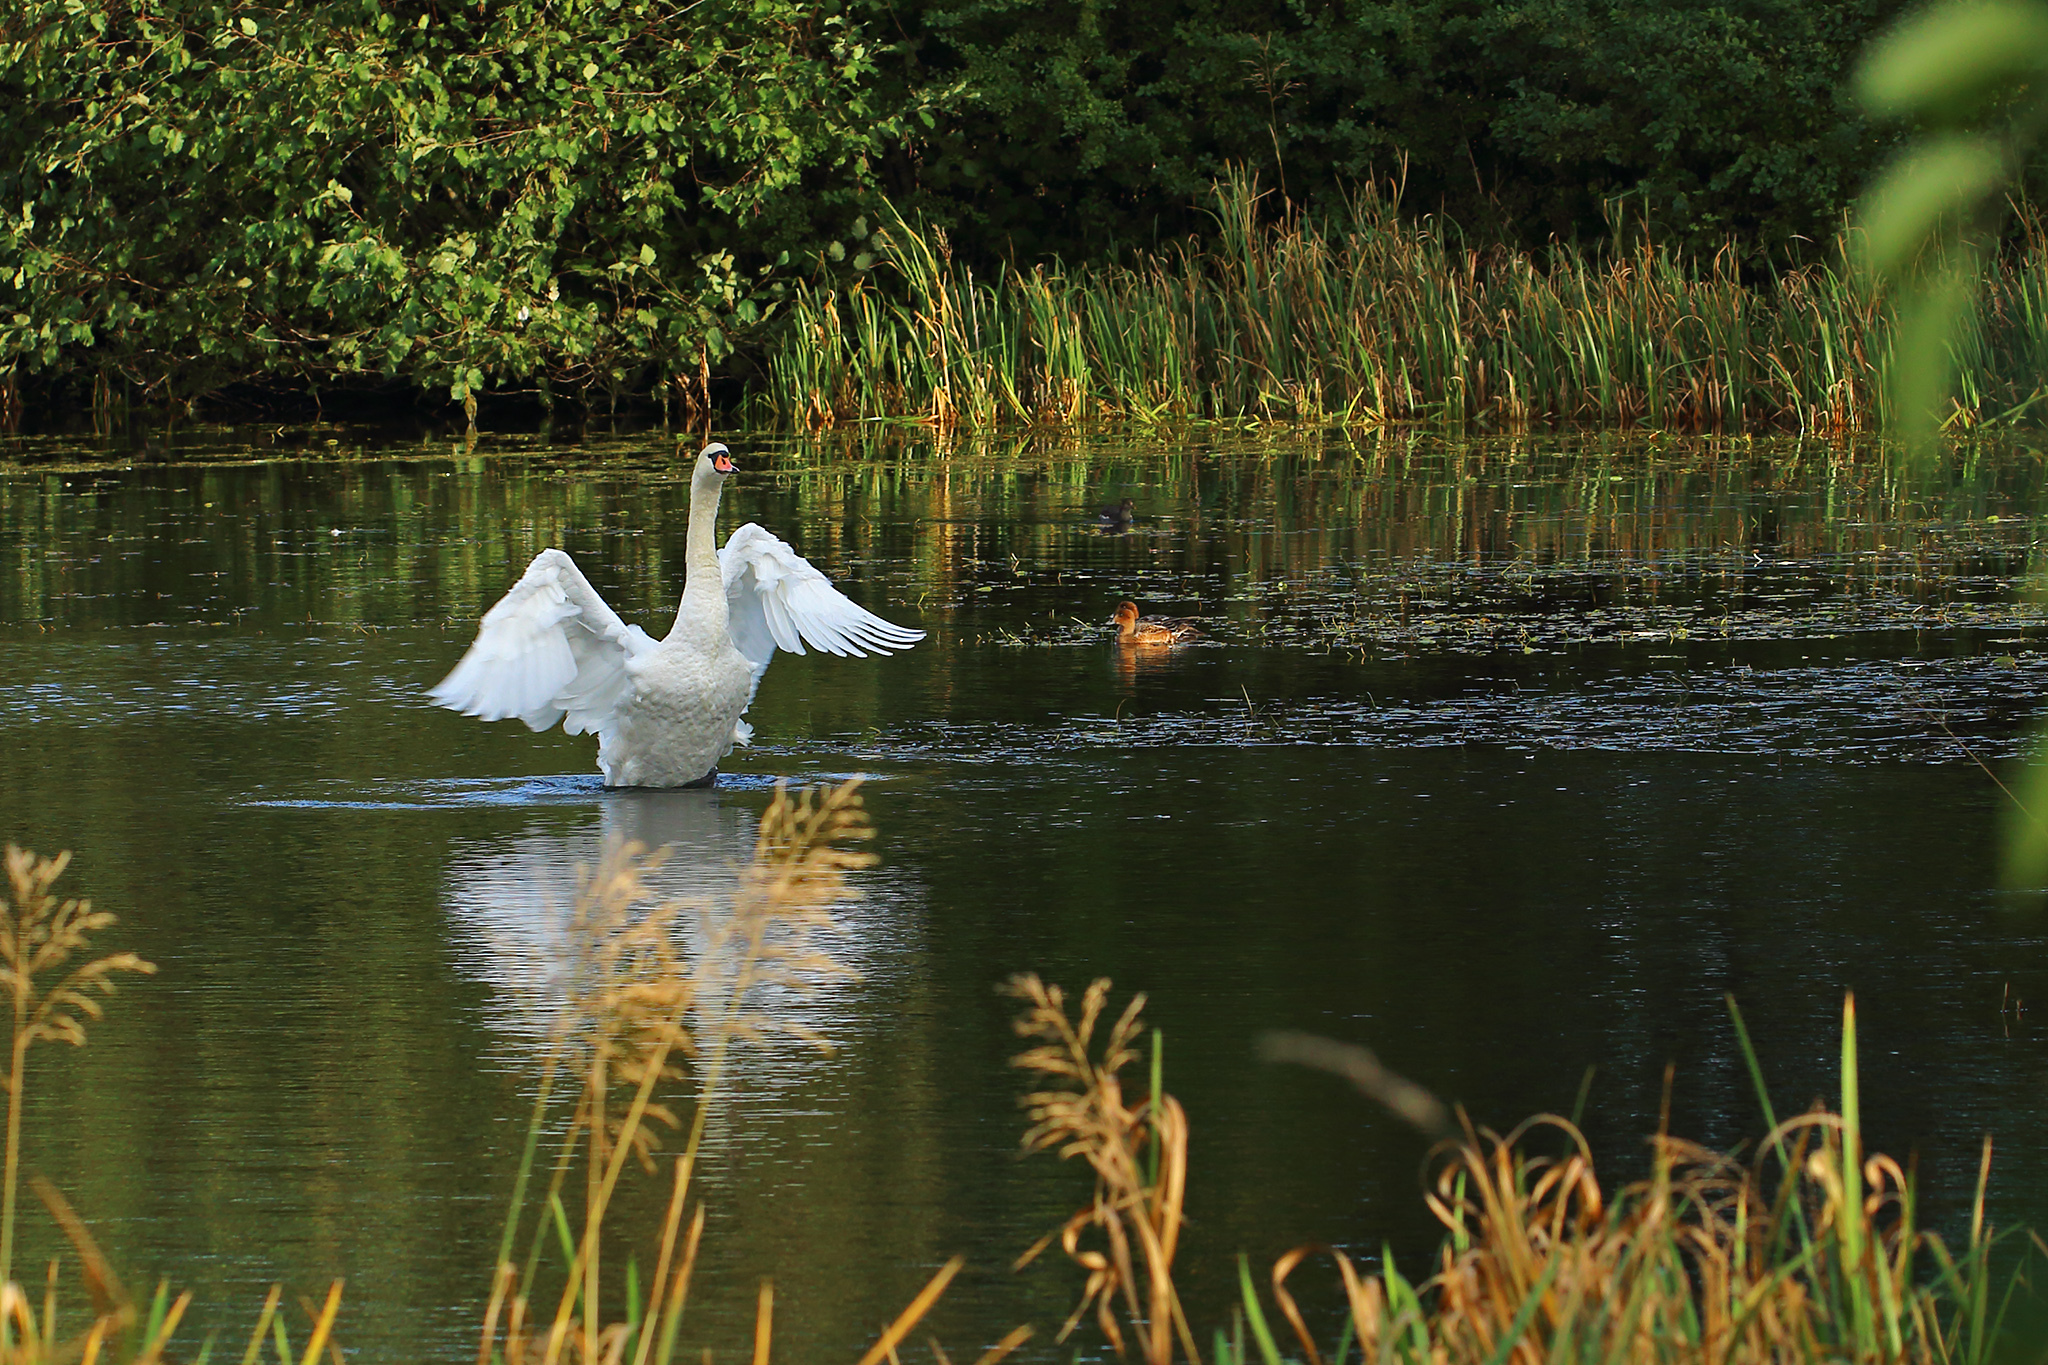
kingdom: Animalia
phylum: Chordata
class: Aves
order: Anseriformes
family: Anatidae
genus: Cygnus
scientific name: Cygnus olor
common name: Mute swan
